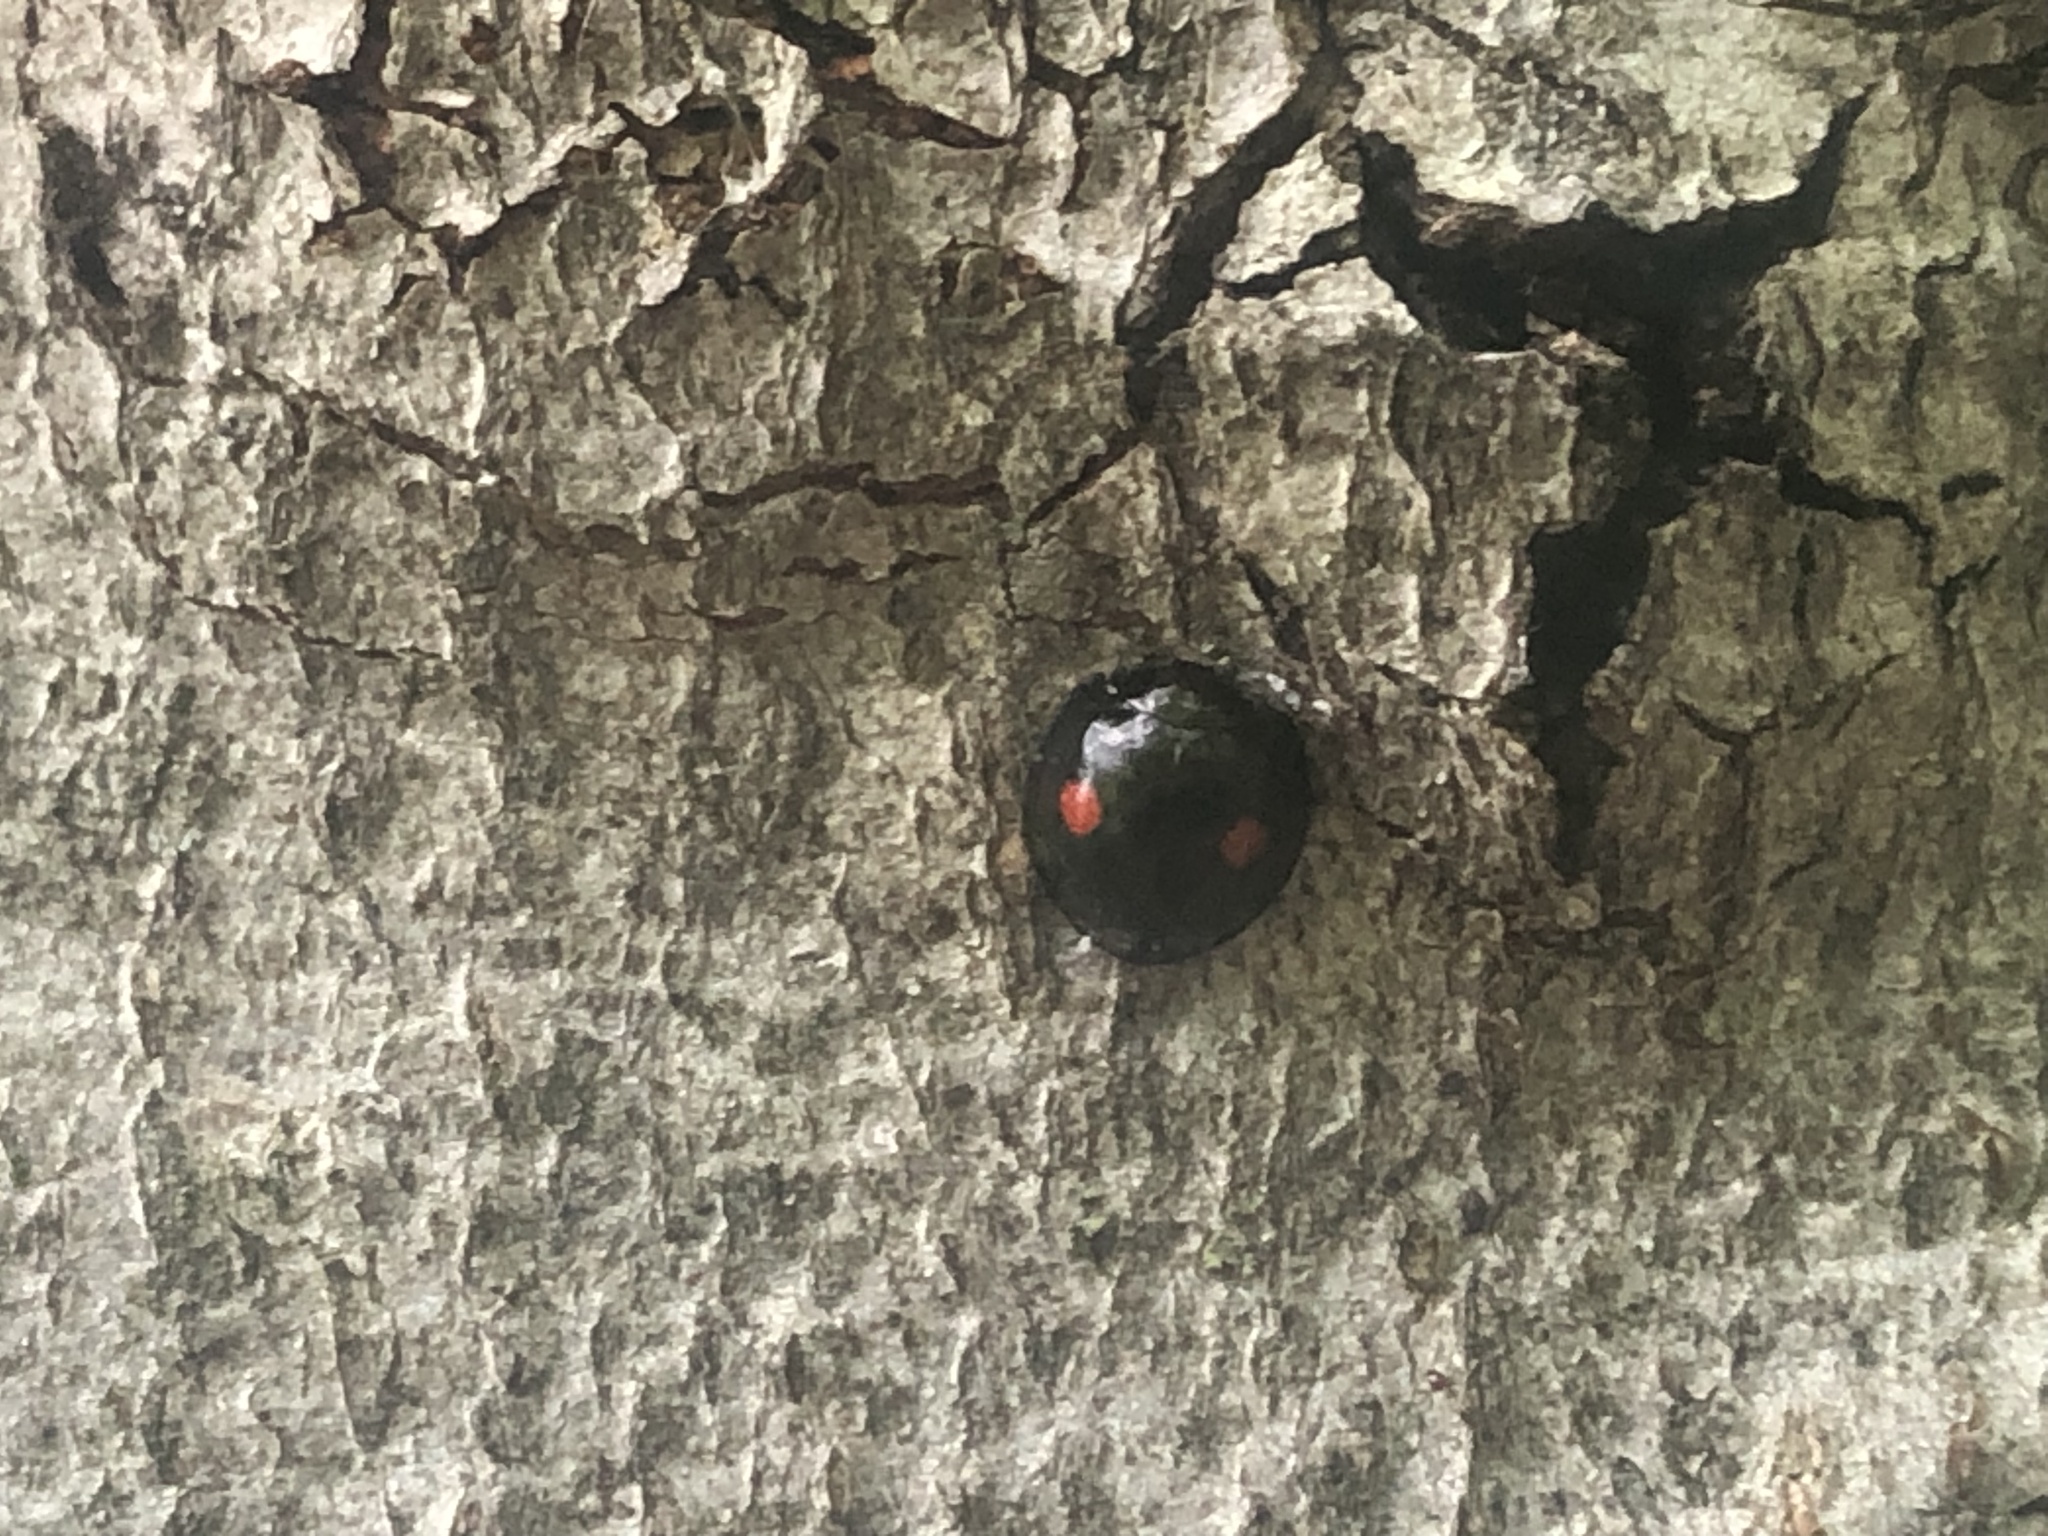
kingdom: Animalia
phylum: Arthropoda
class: Insecta
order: Coleoptera
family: Coccinellidae
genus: Chilocorus
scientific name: Chilocorus stigma
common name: Twicestabbed lady beetle
